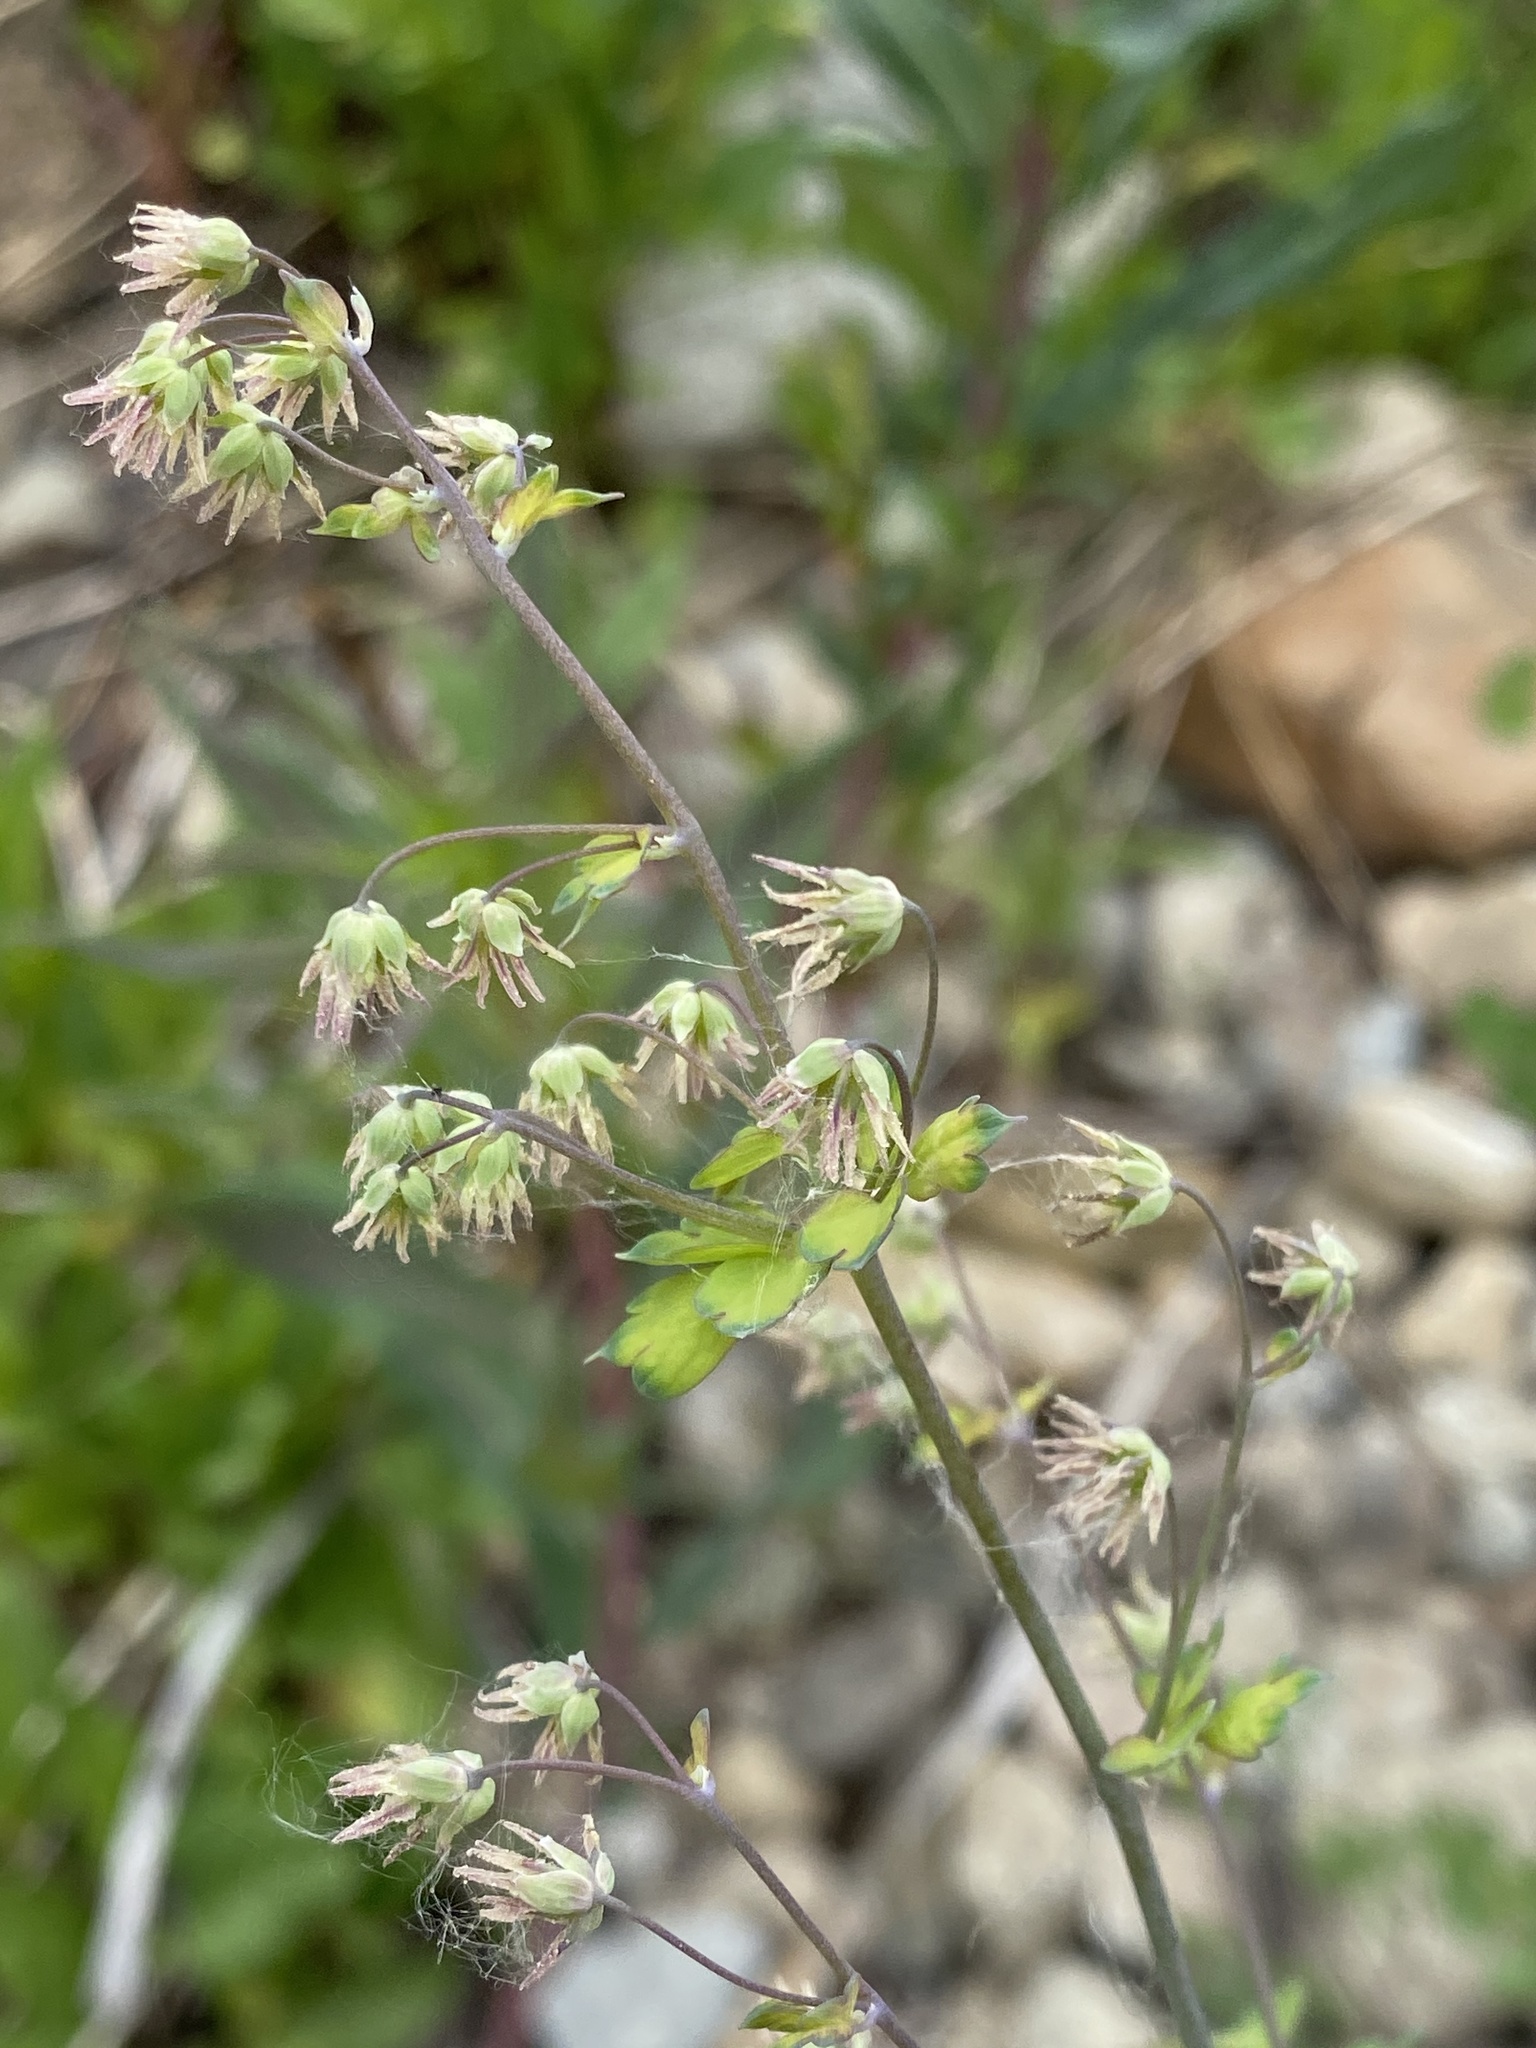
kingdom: Plantae
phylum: Tracheophyta
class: Magnoliopsida
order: Ranunculales
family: Ranunculaceae
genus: Thalictrum
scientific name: Thalictrum fendleri
